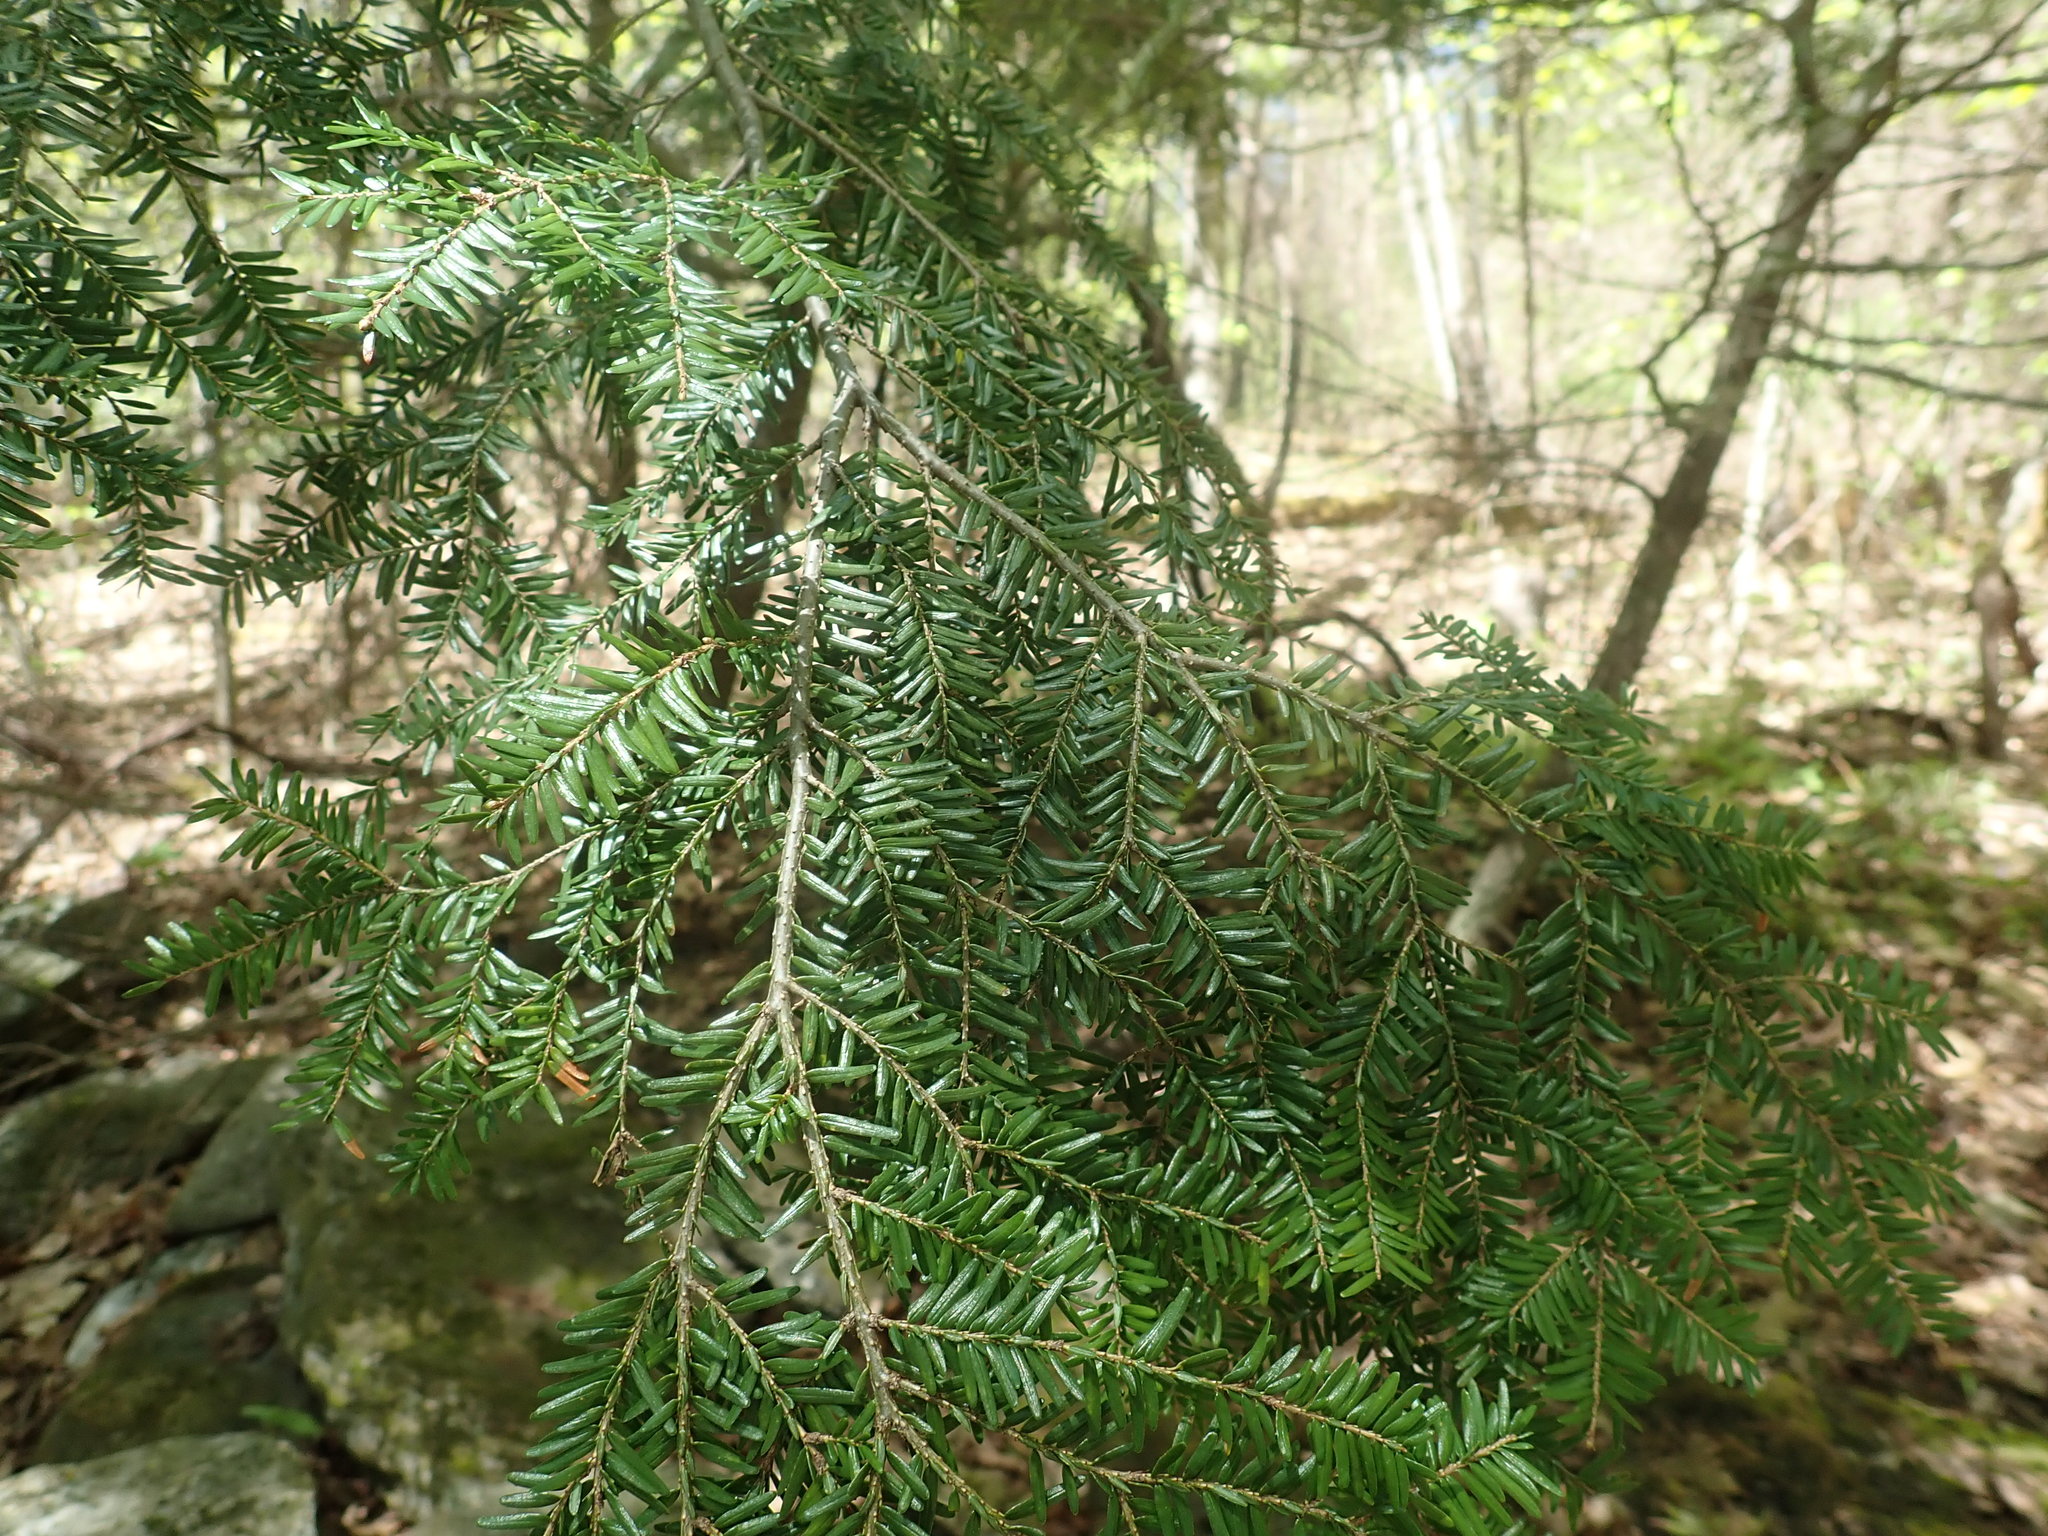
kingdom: Plantae
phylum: Tracheophyta
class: Pinopsida
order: Pinales
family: Pinaceae
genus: Tsuga
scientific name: Tsuga canadensis
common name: Eastern hemlock
